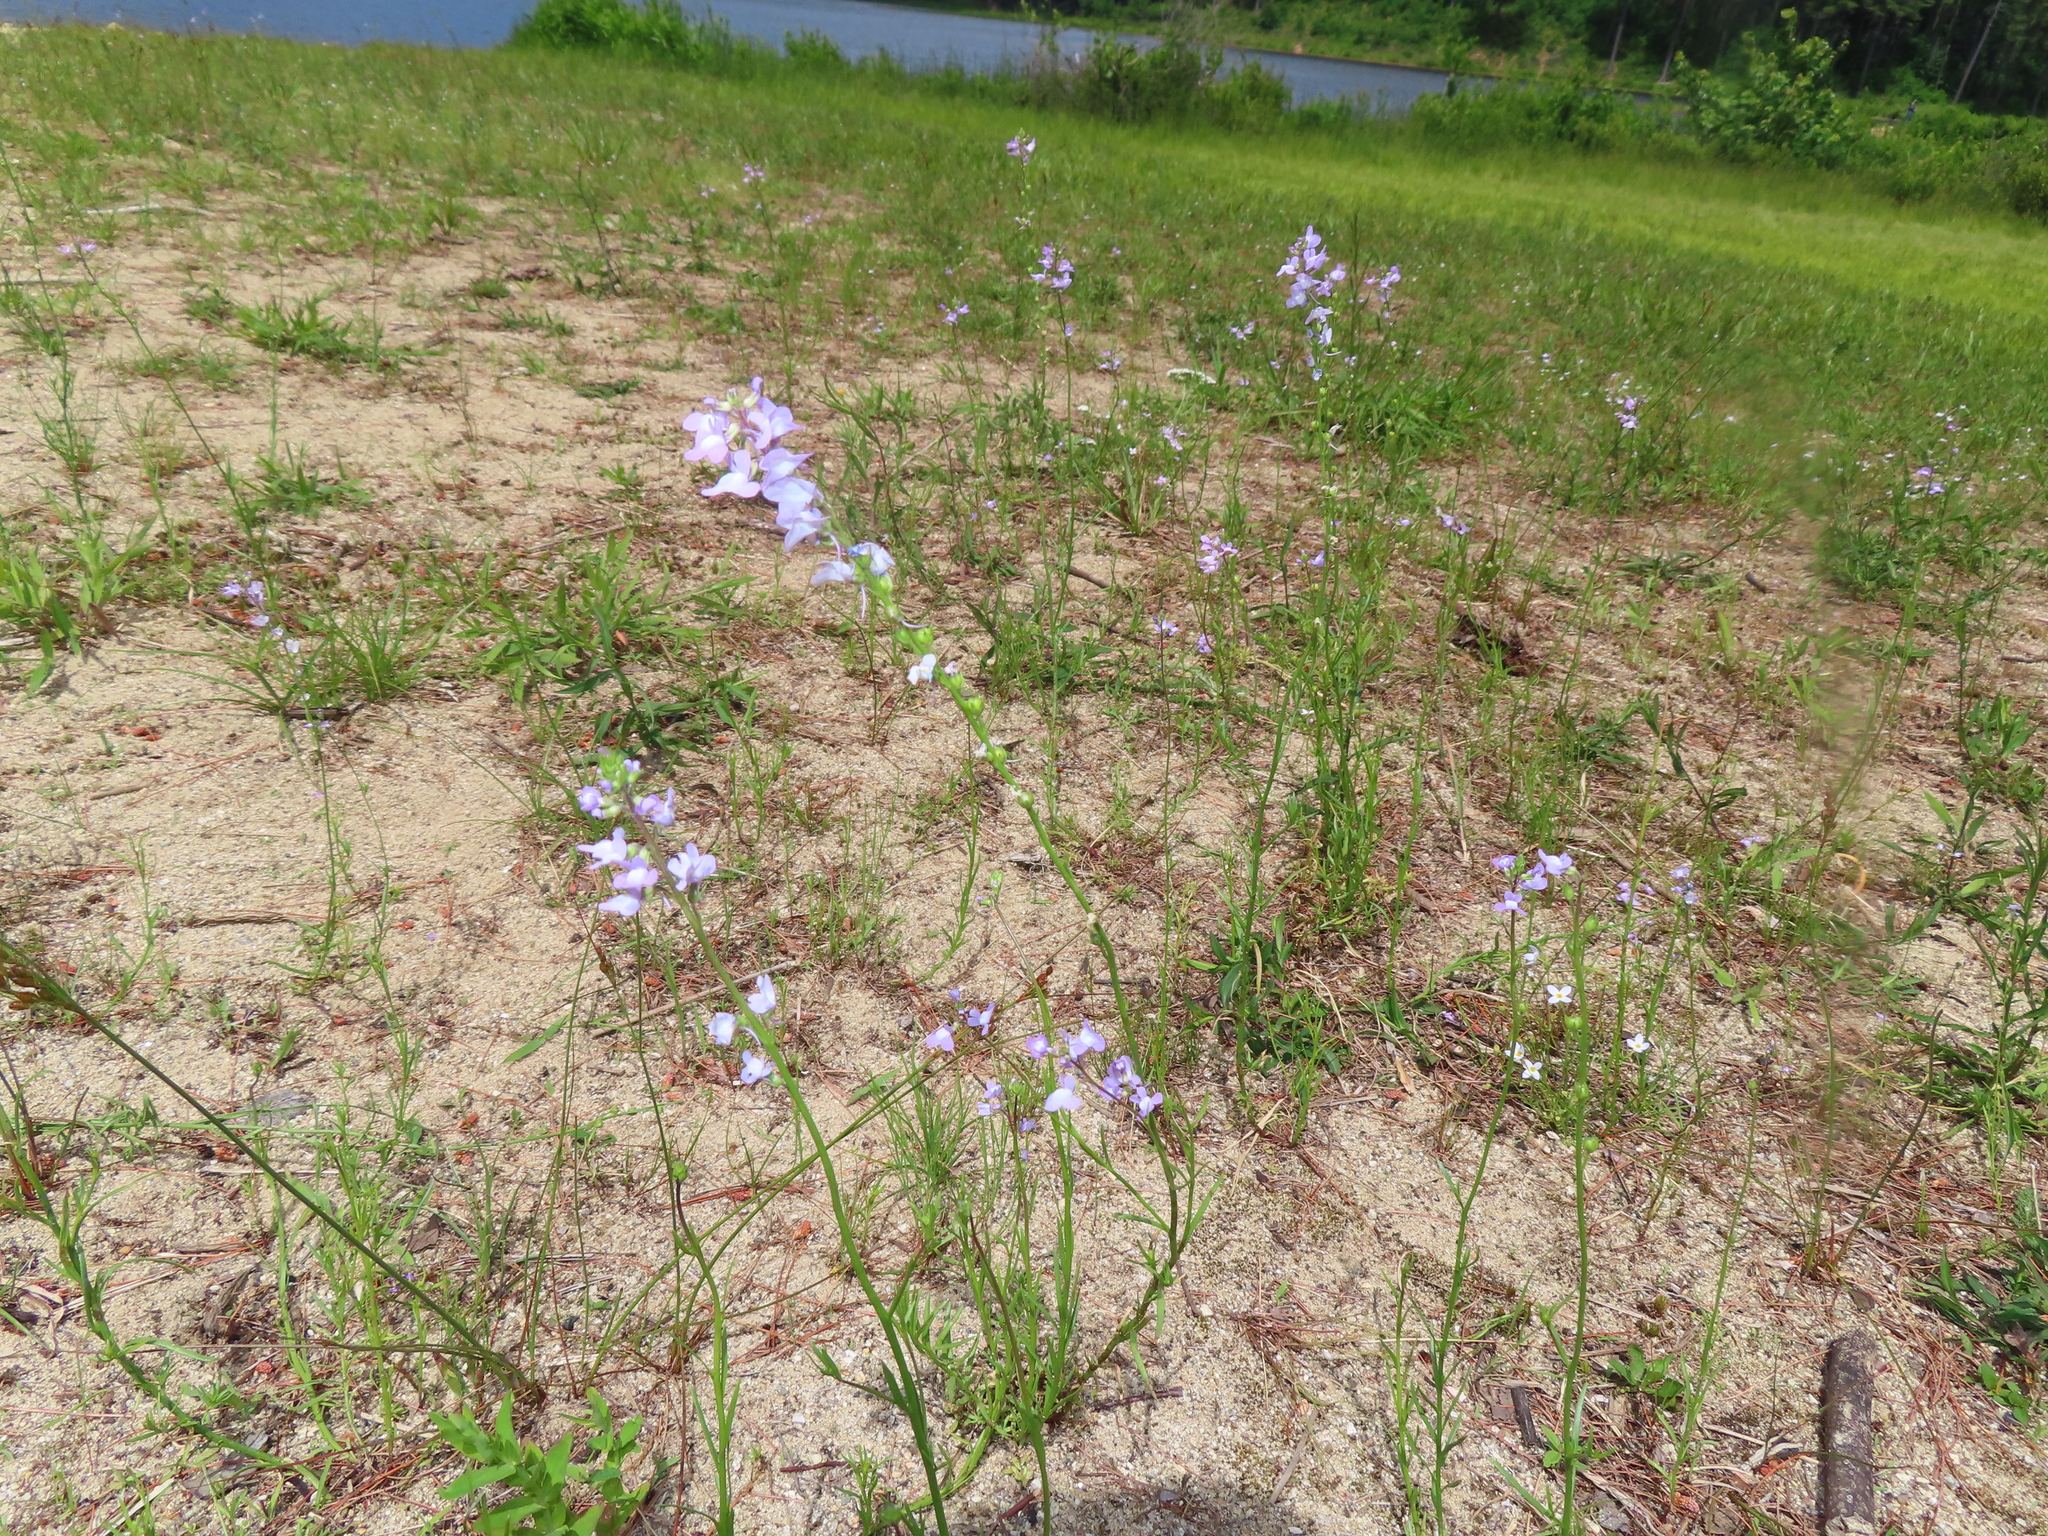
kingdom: Plantae
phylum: Tracheophyta
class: Magnoliopsida
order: Lamiales
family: Plantaginaceae
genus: Nuttallanthus
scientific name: Nuttallanthus canadensis
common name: Blue toadflax
